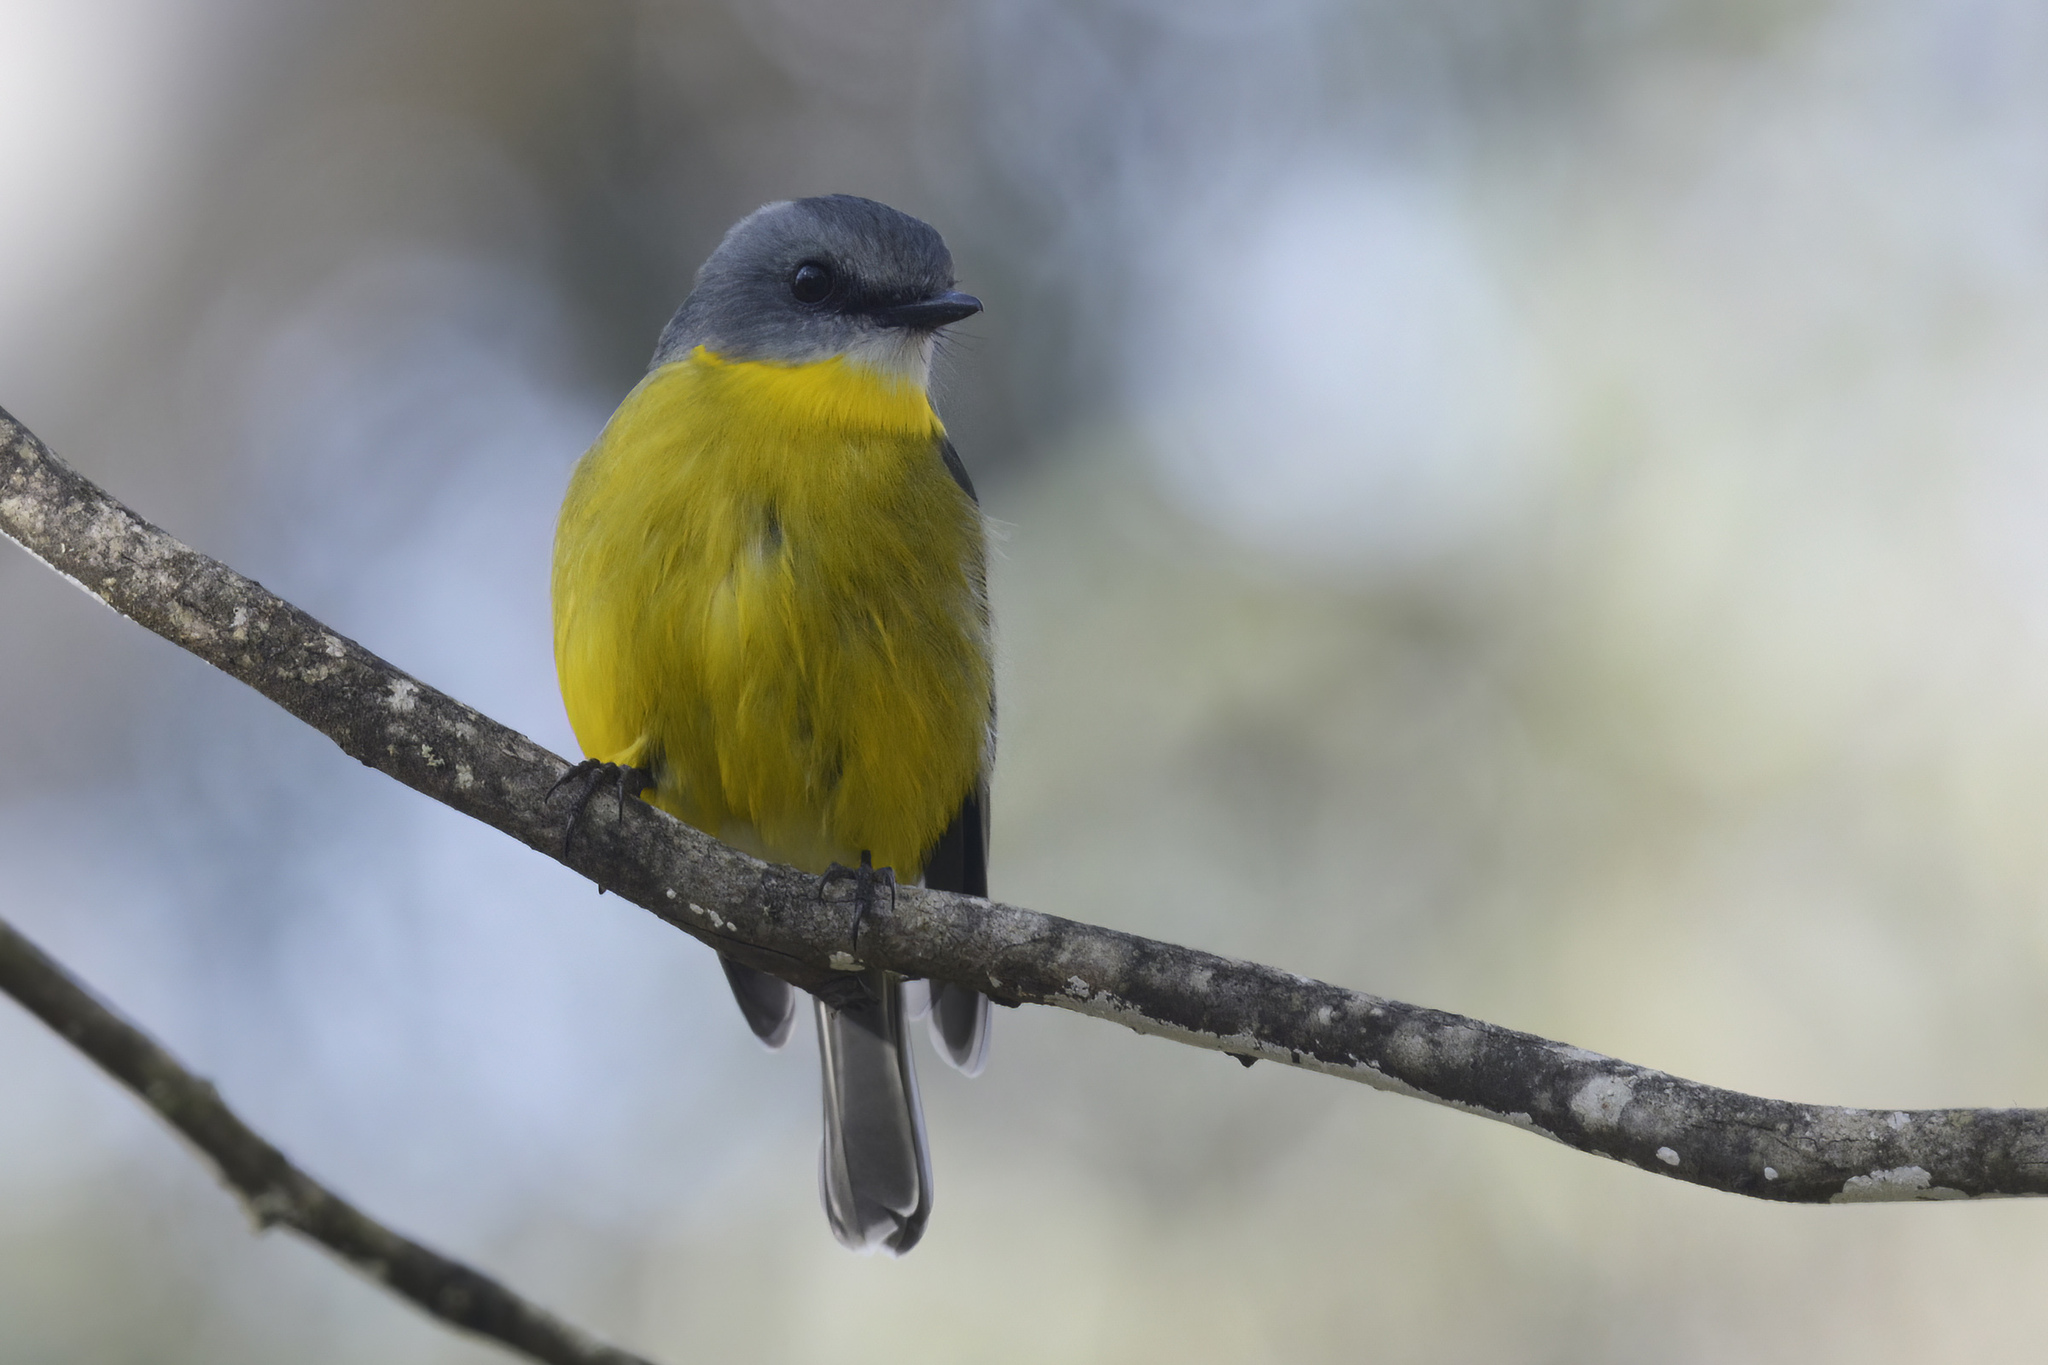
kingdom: Animalia
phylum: Chordata
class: Aves
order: Passeriformes
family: Petroicidae
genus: Eopsaltria
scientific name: Eopsaltria australis
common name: Eastern yellow robin
